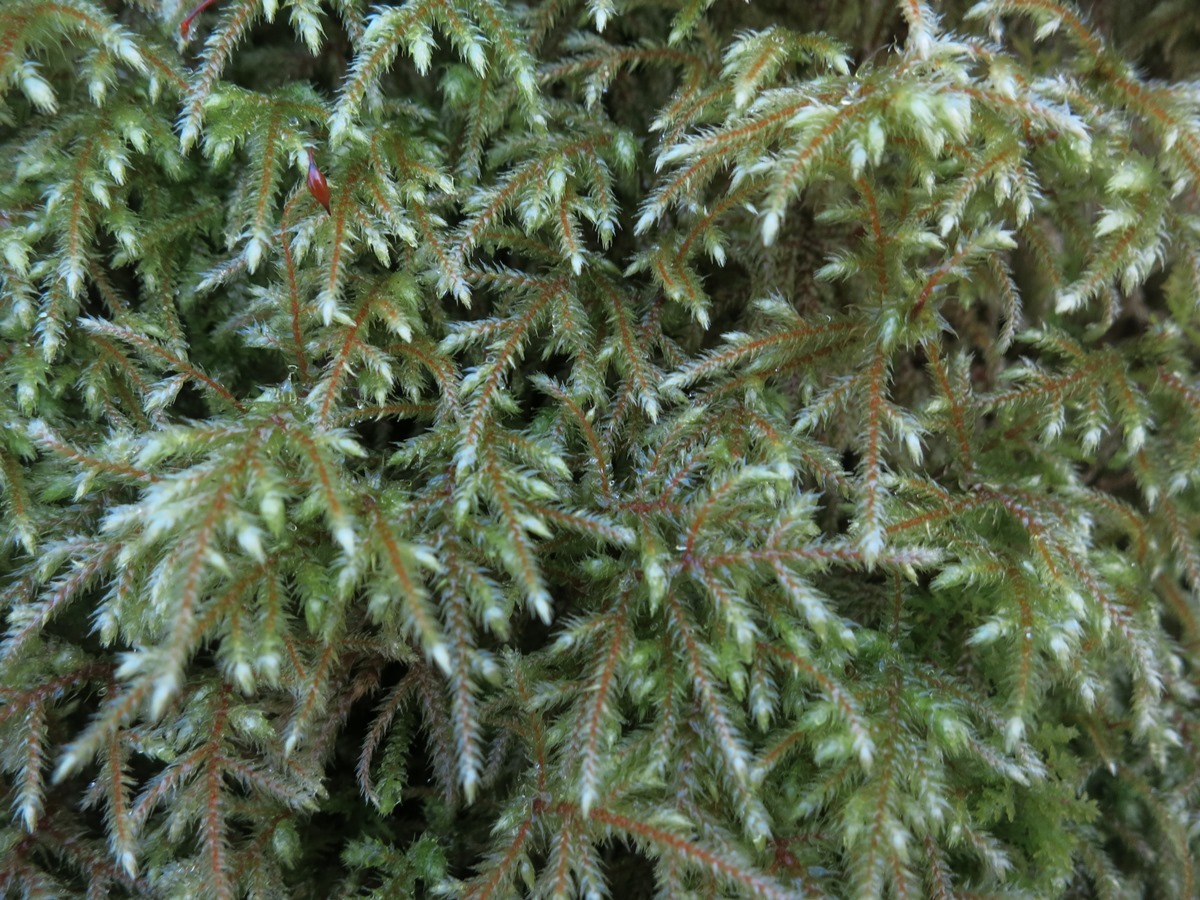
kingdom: Plantae
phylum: Bryophyta
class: Bryopsida
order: Hypnales
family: Hylocomiaceae
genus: Loeskeobryum
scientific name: Loeskeobryum brevirostre
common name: Short-beaked wood-moss
